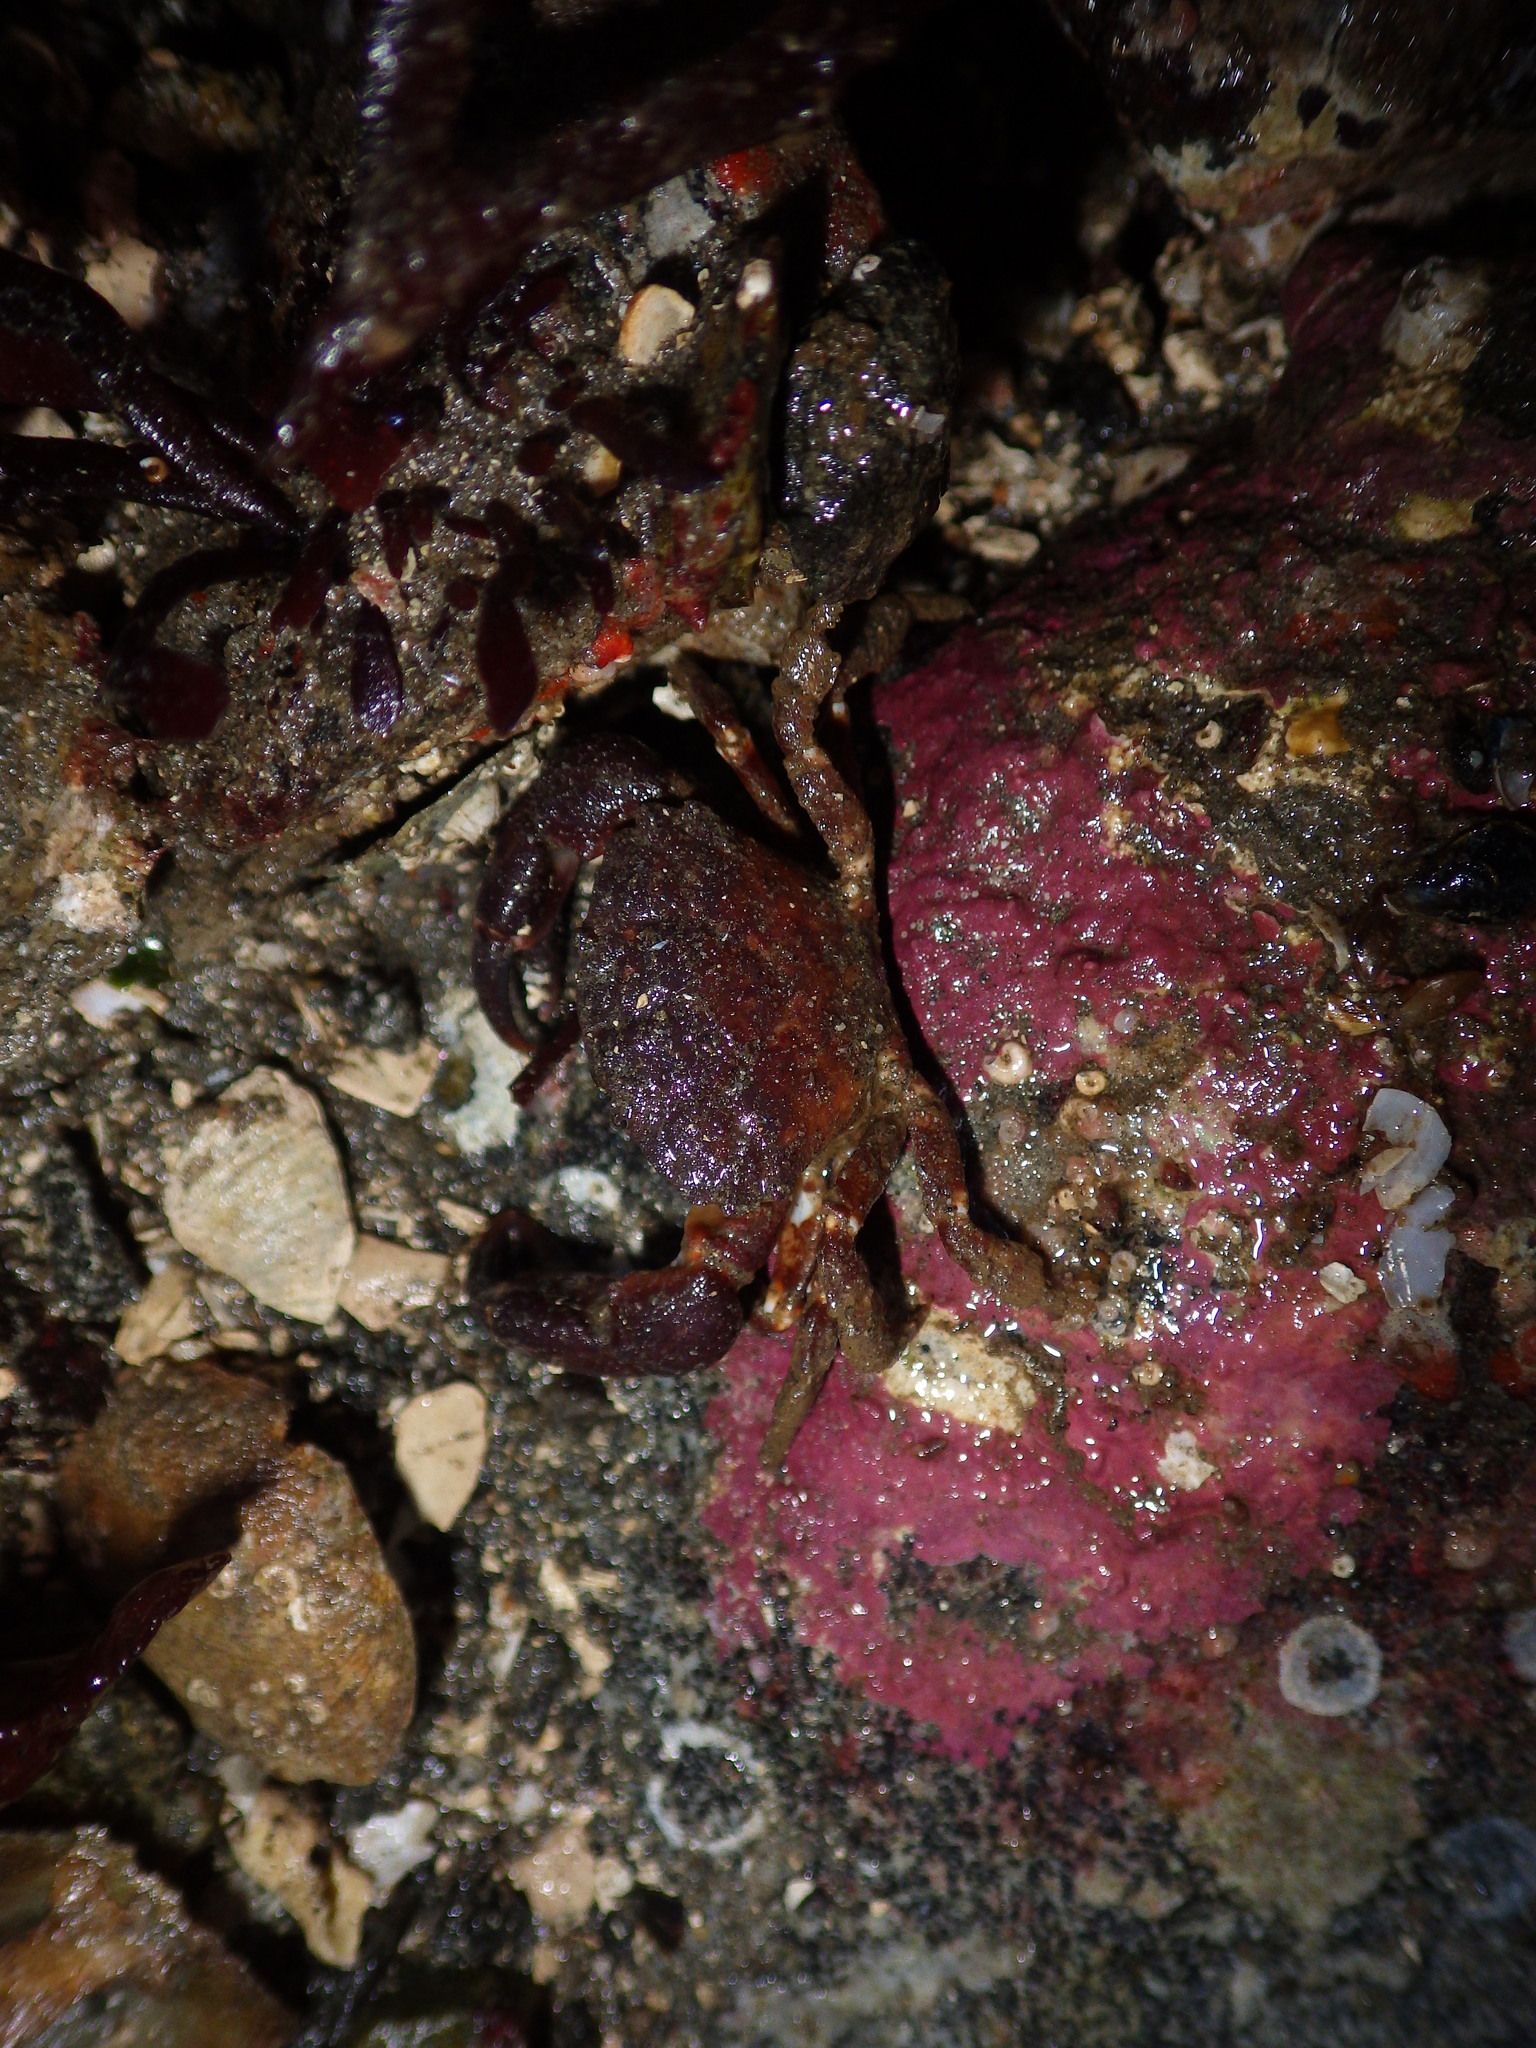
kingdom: Animalia
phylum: Arthropoda
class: Malacostraca
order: Decapoda
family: Panopeidae
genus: Lophopanopeus
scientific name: Lophopanopeus bellus
